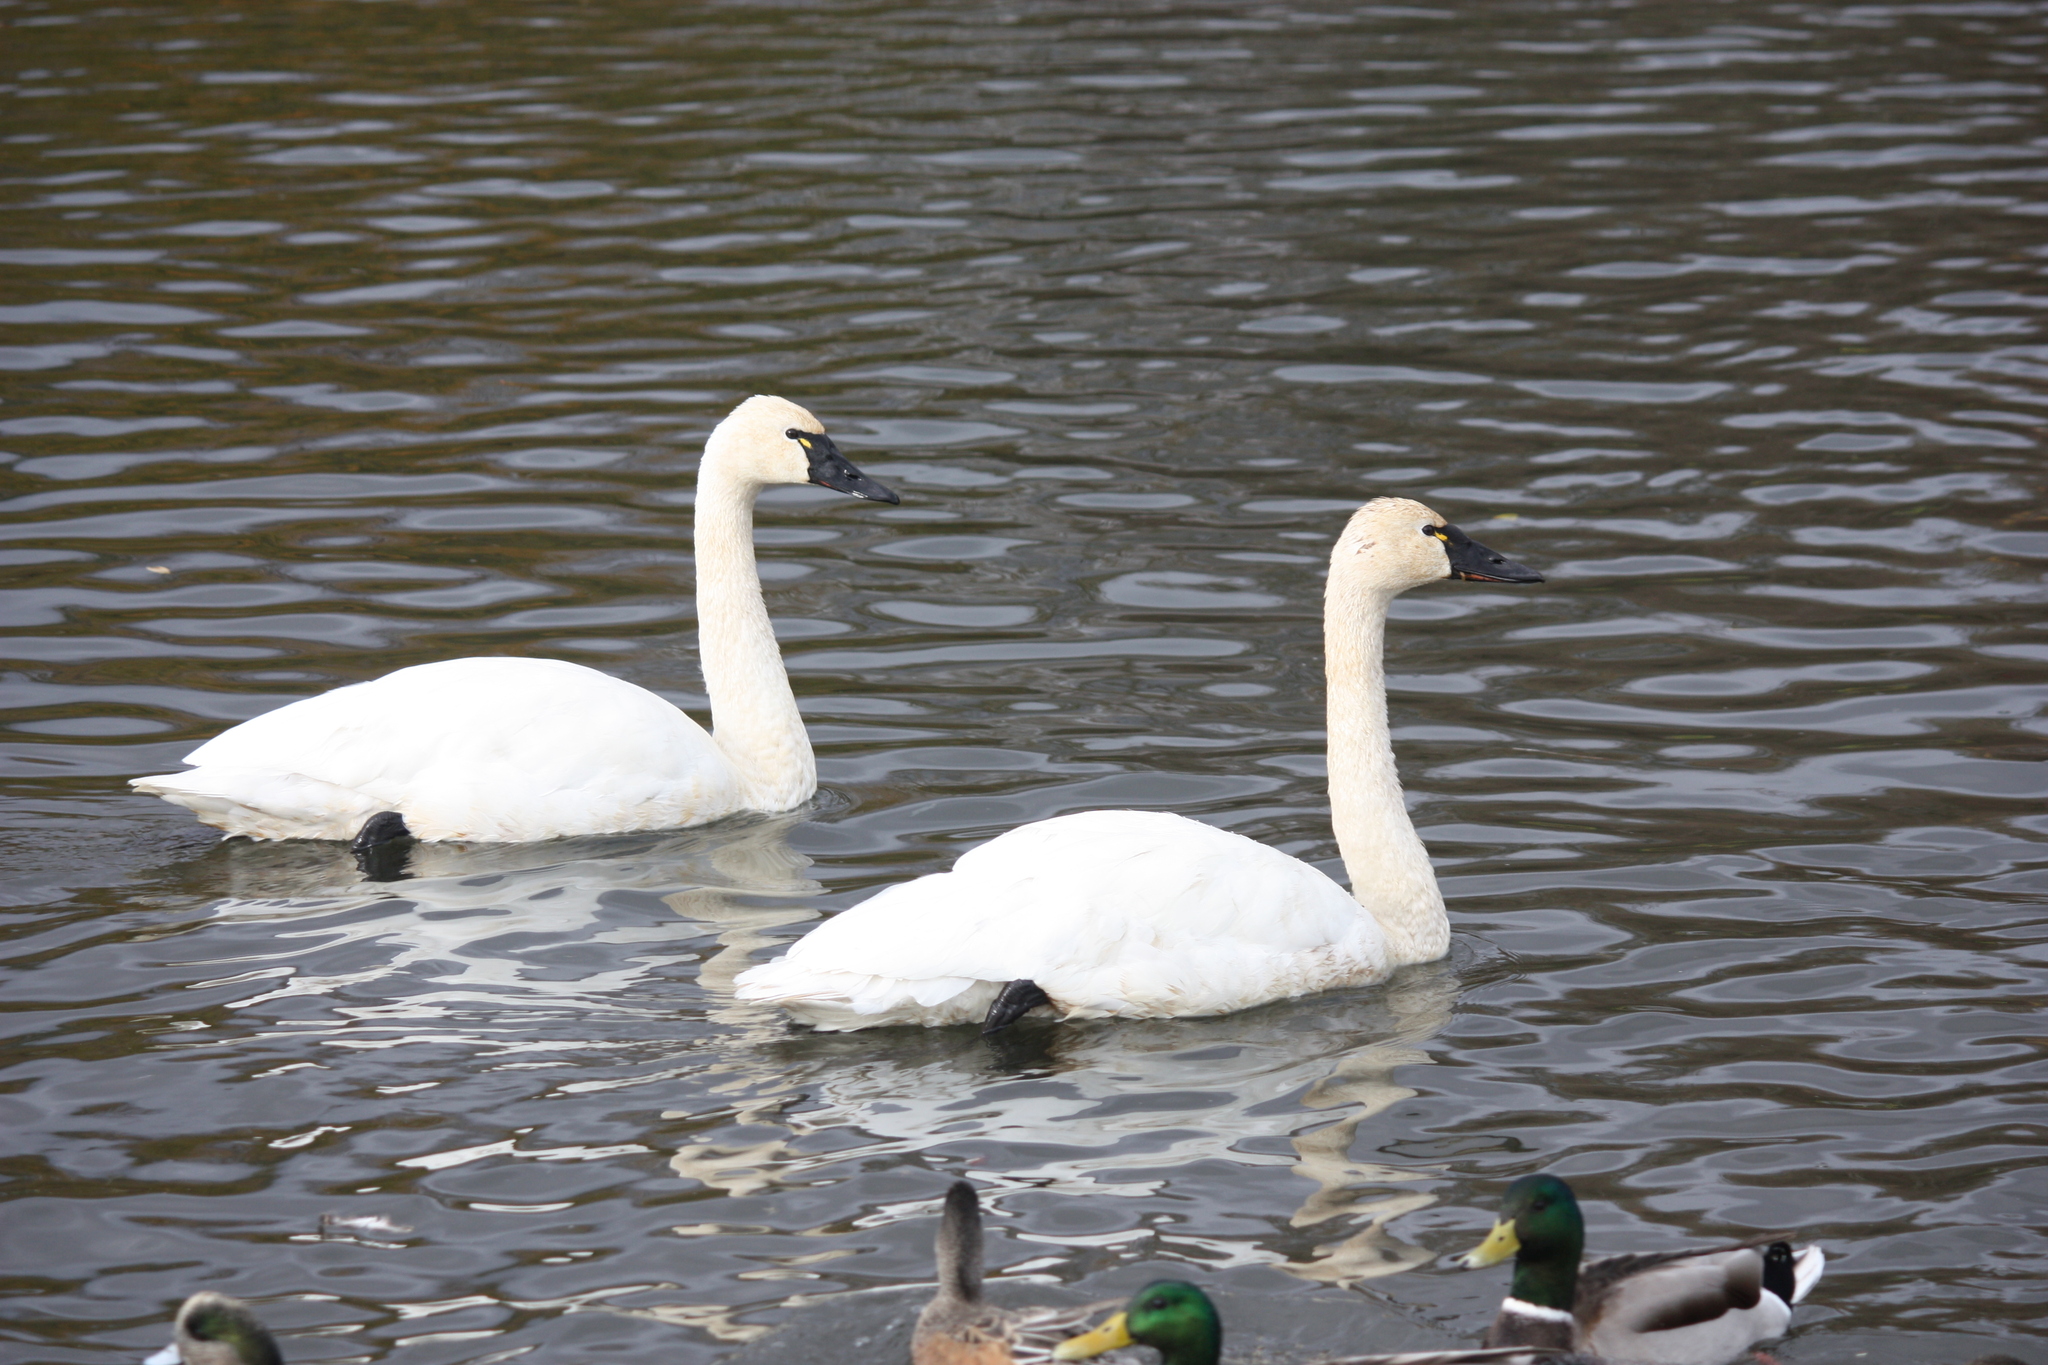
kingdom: Animalia
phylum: Chordata
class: Aves
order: Anseriformes
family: Anatidae
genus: Cygnus
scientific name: Cygnus columbianus
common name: Tundra swan
